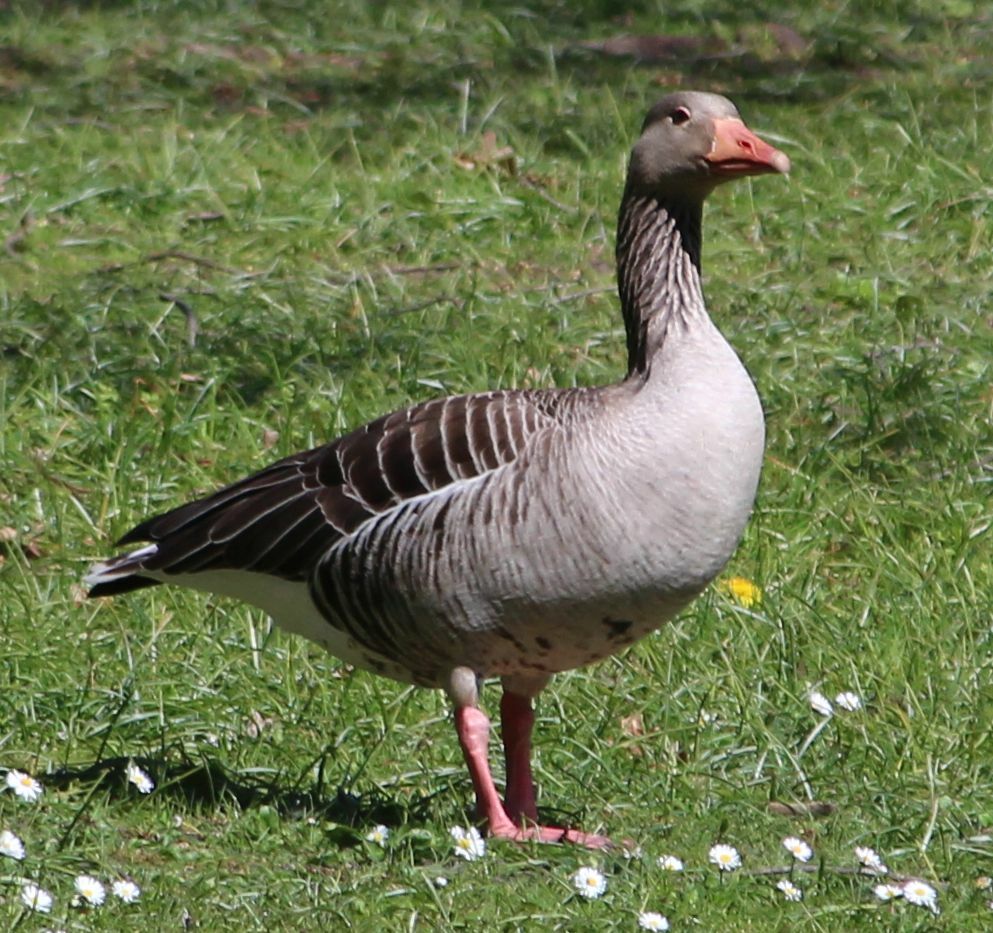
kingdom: Animalia
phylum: Chordata
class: Aves
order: Anseriformes
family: Anatidae
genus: Anser
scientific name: Anser anser
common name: Greylag goose
